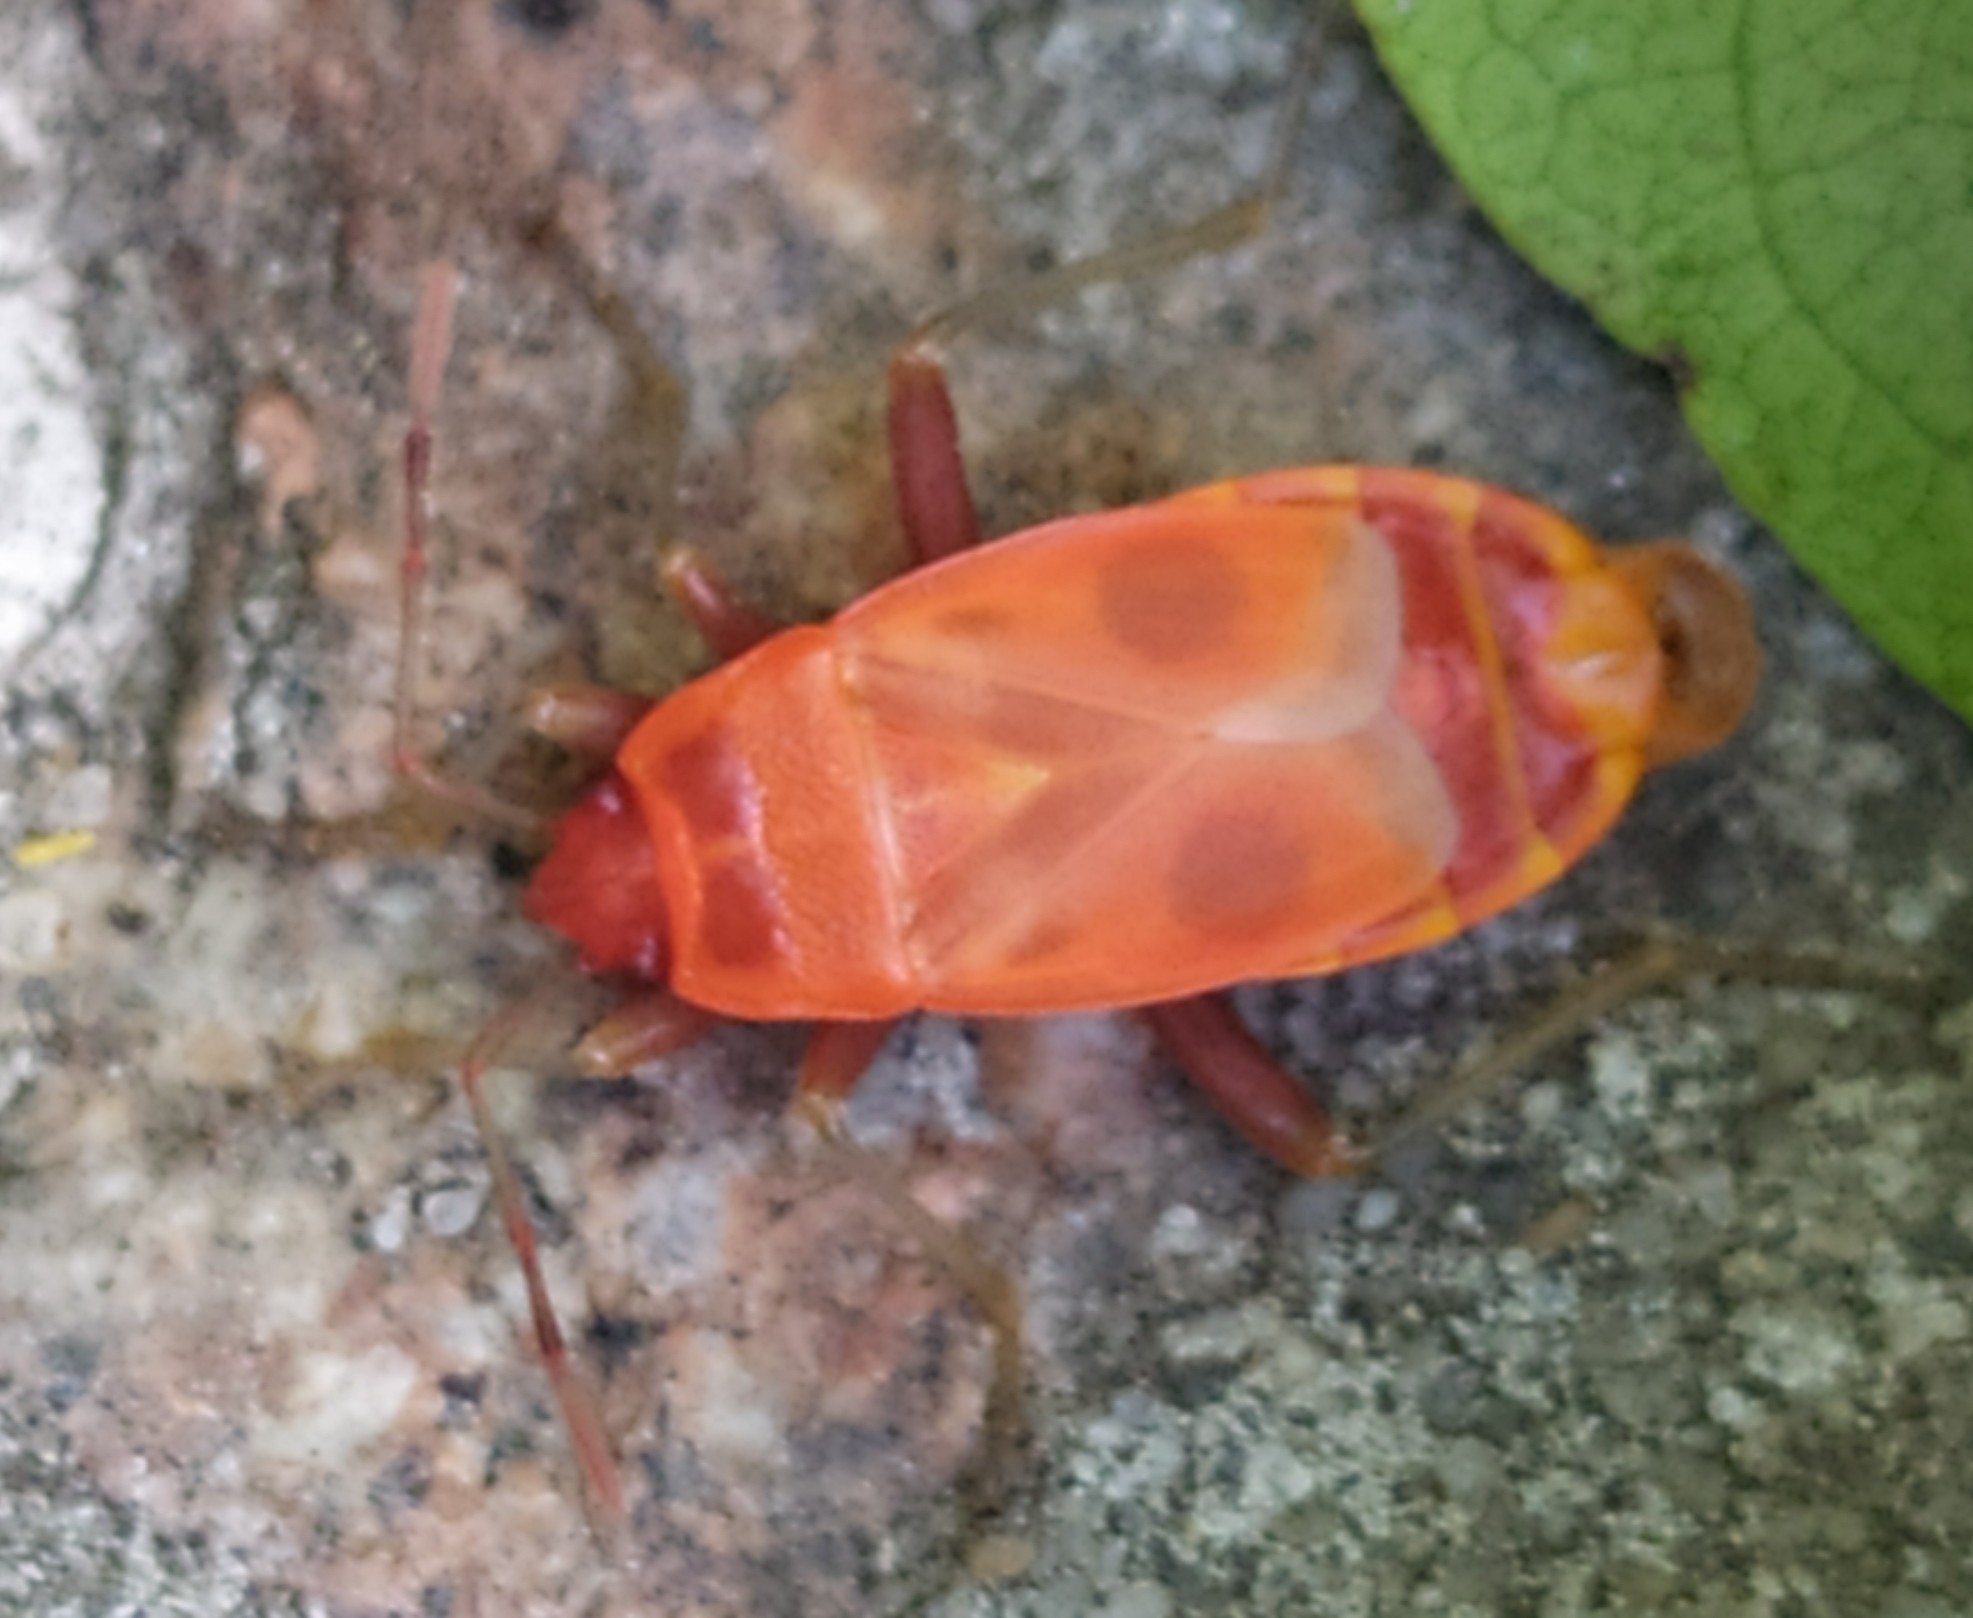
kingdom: Animalia
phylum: Arthropoda
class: Insecta
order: Hemiptera
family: Pyrrhocoridae
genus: Pyrrhocoris
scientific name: Pyrrhocoris apterus
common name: Firebug
